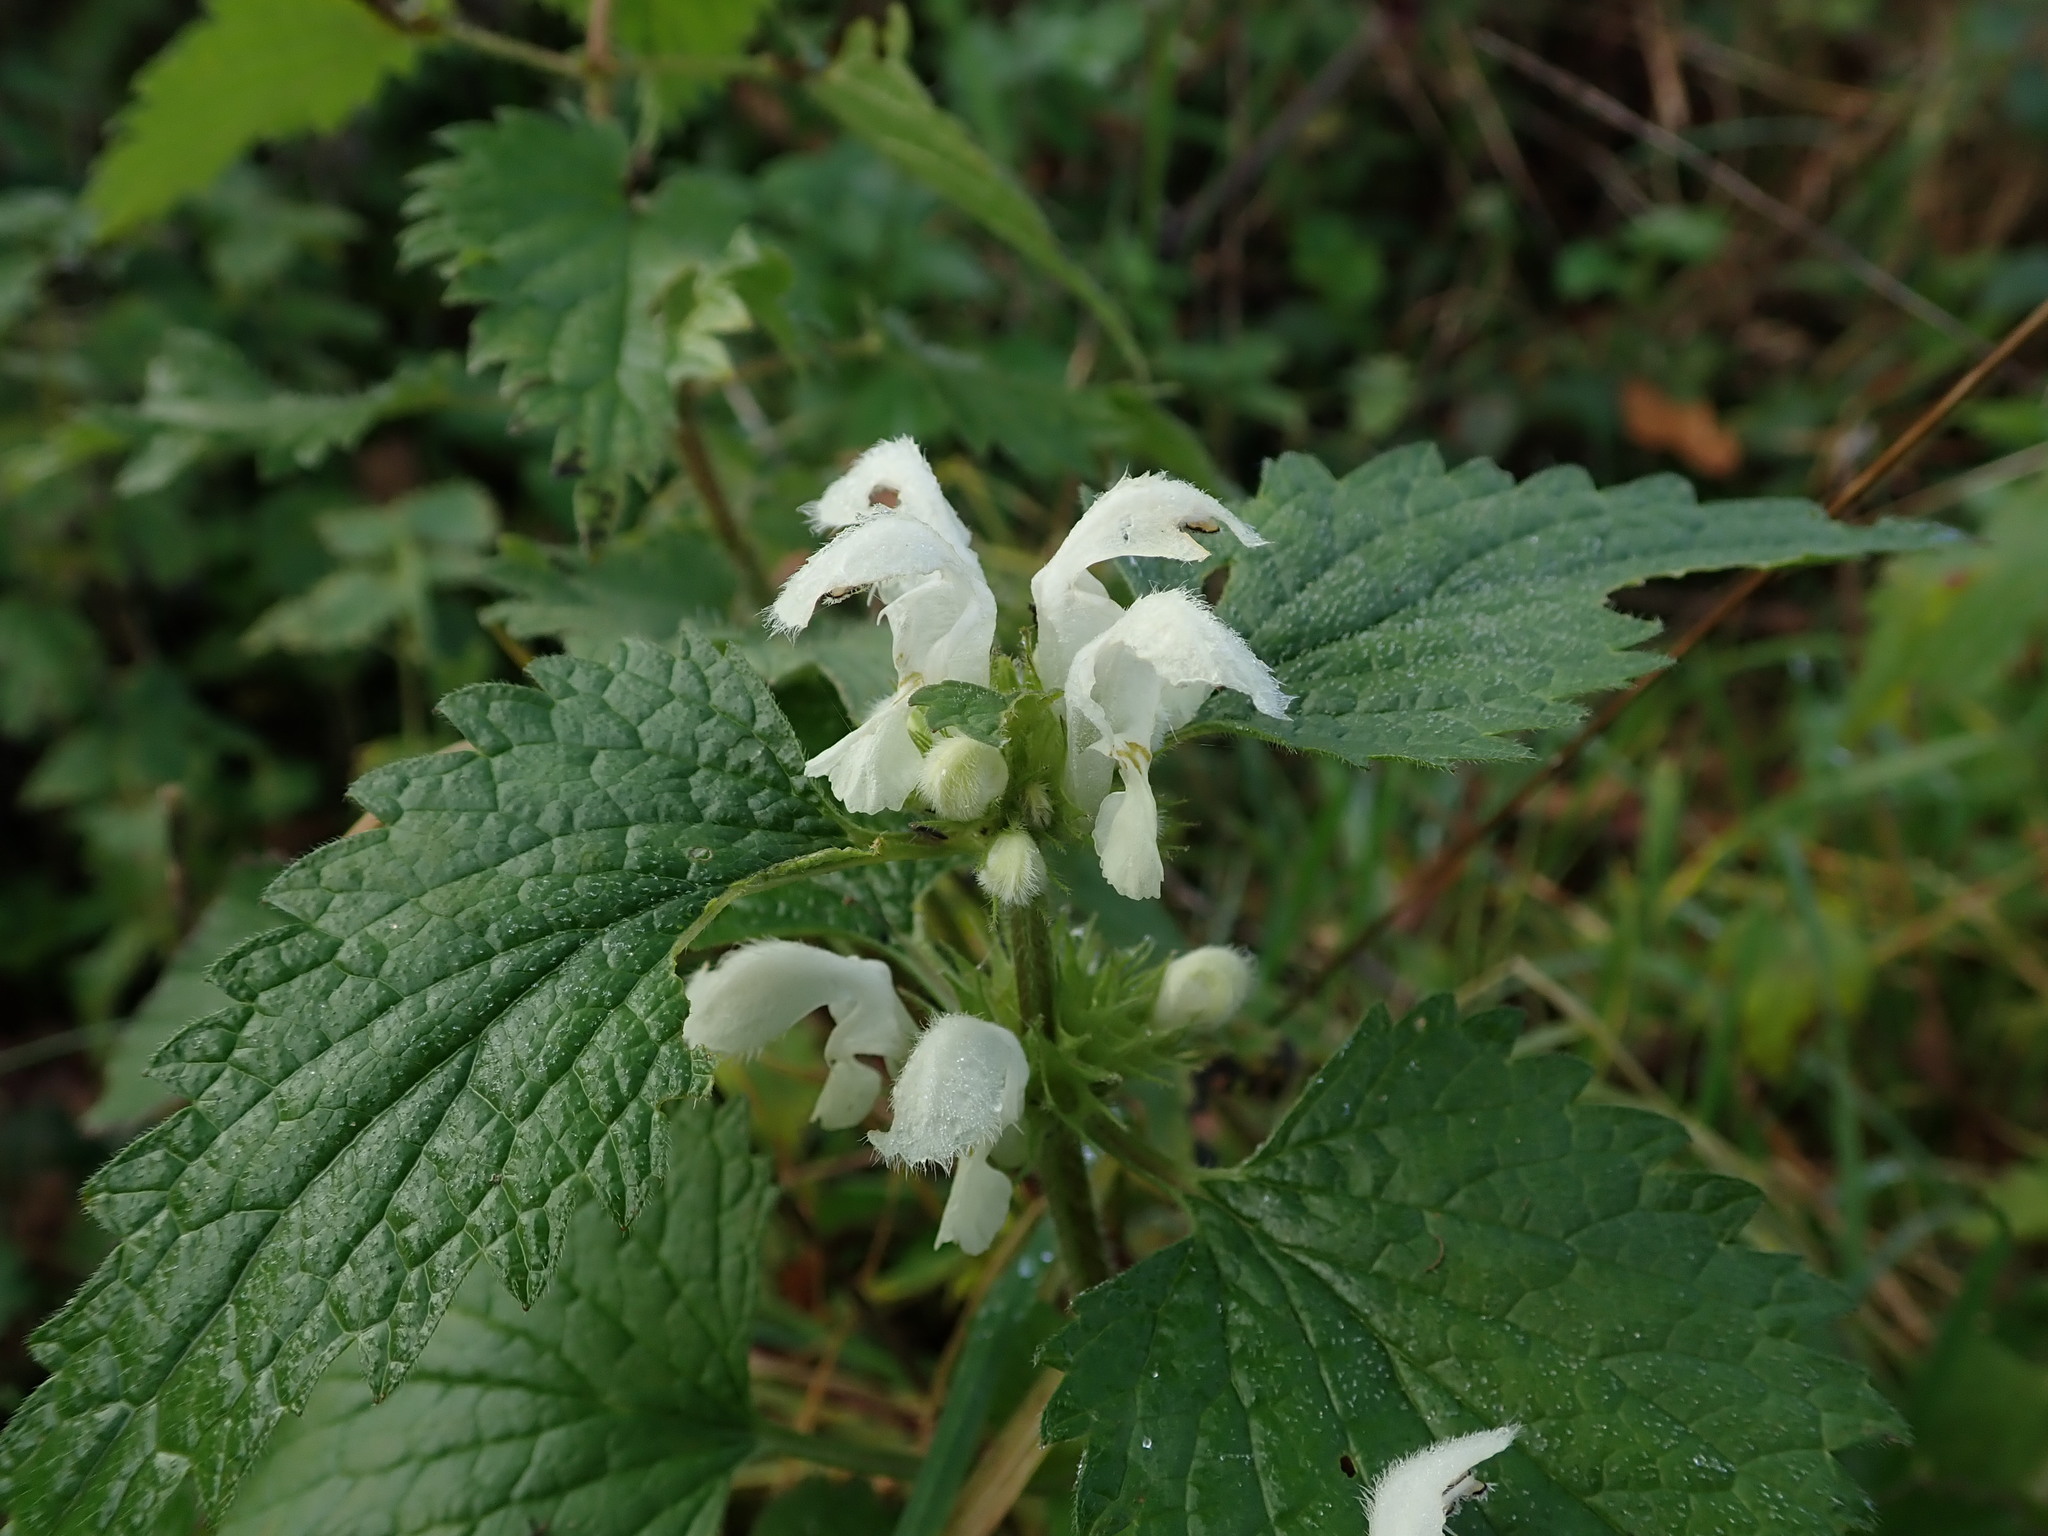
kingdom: Plantae
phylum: Tracheophyta
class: Magnoliopsida
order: Lamiales
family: Lamiaceae
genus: Lamium
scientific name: Lamium album
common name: White dead-nettle
